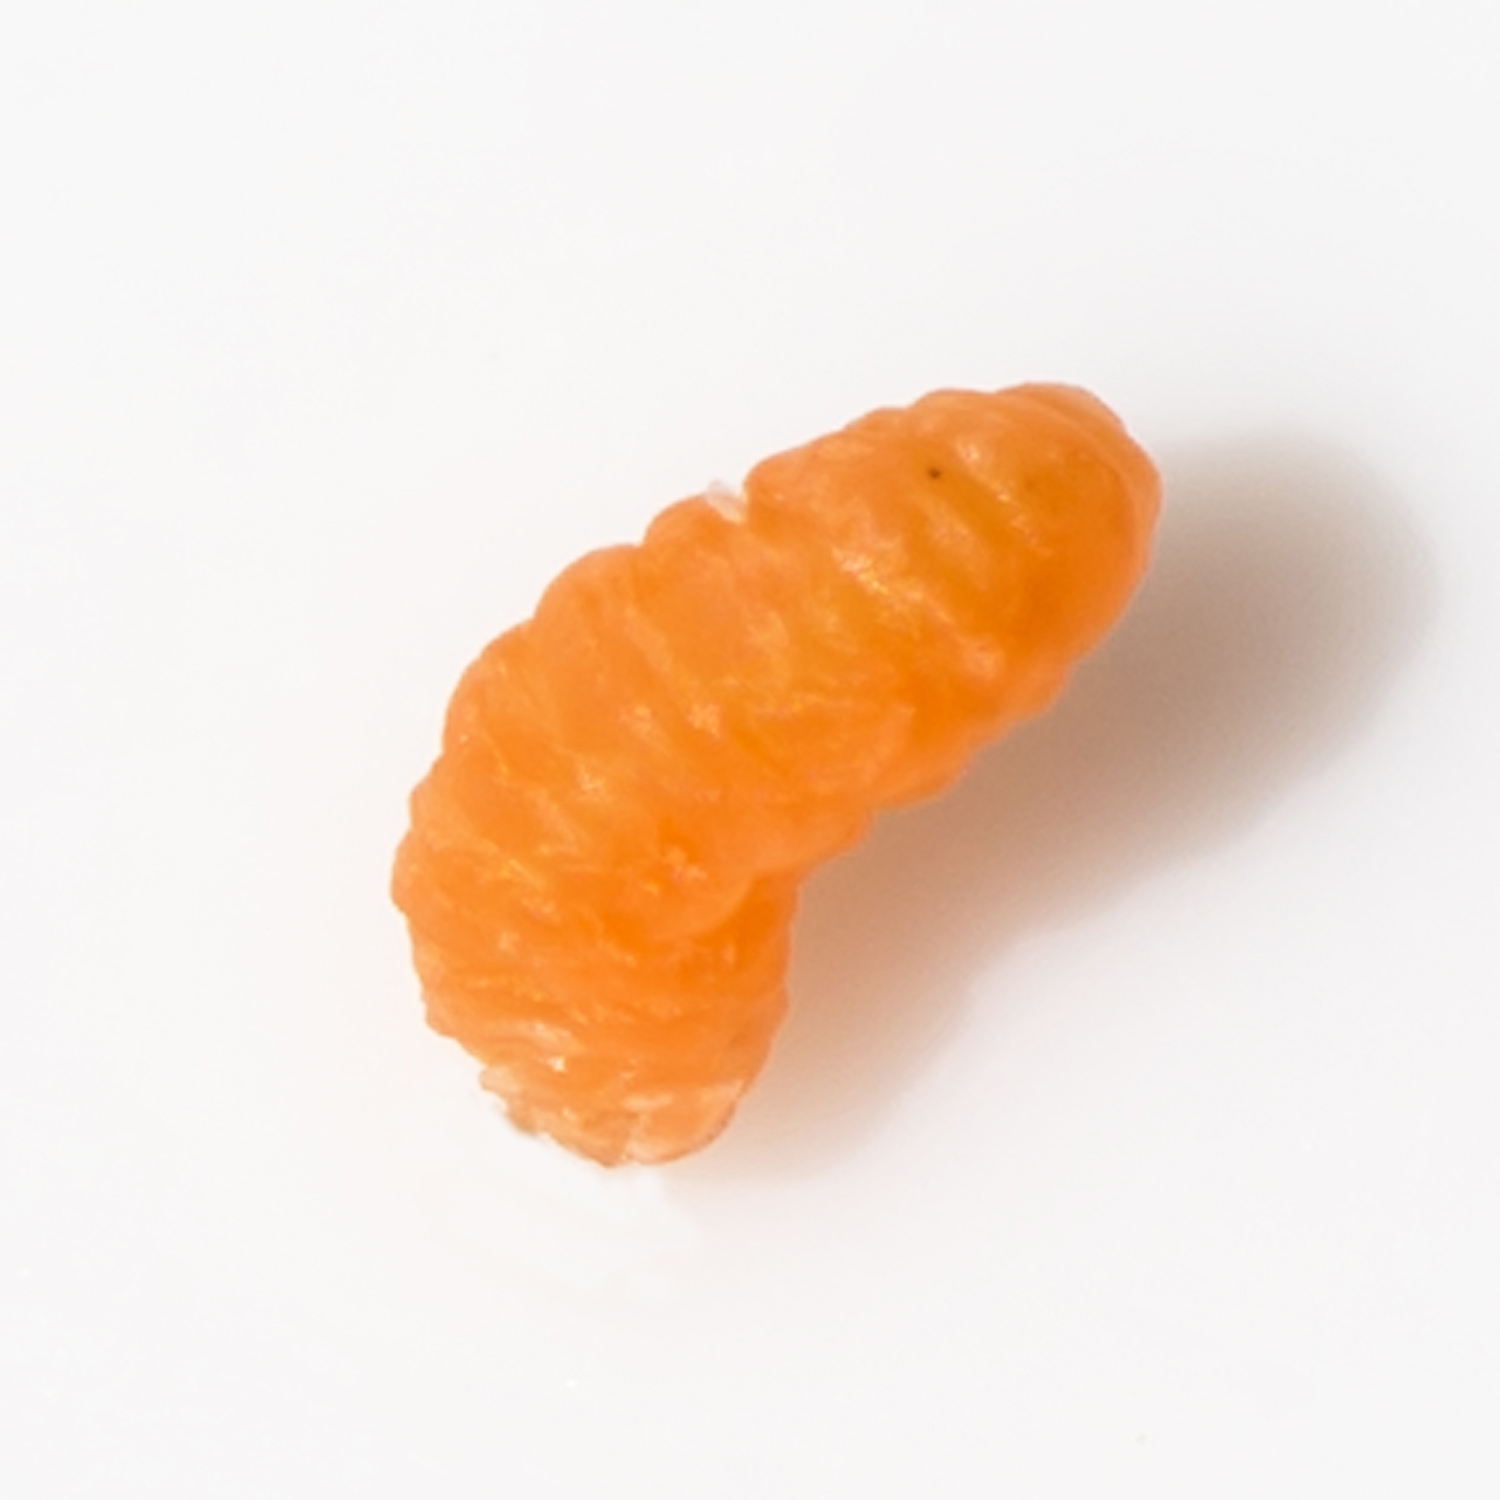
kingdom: Animalia
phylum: Arthropoda
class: Insecta
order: Diptera
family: Cecidomyiidae
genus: Polystepha
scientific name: Polystepha pilulae
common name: Oak leaf gall midge
